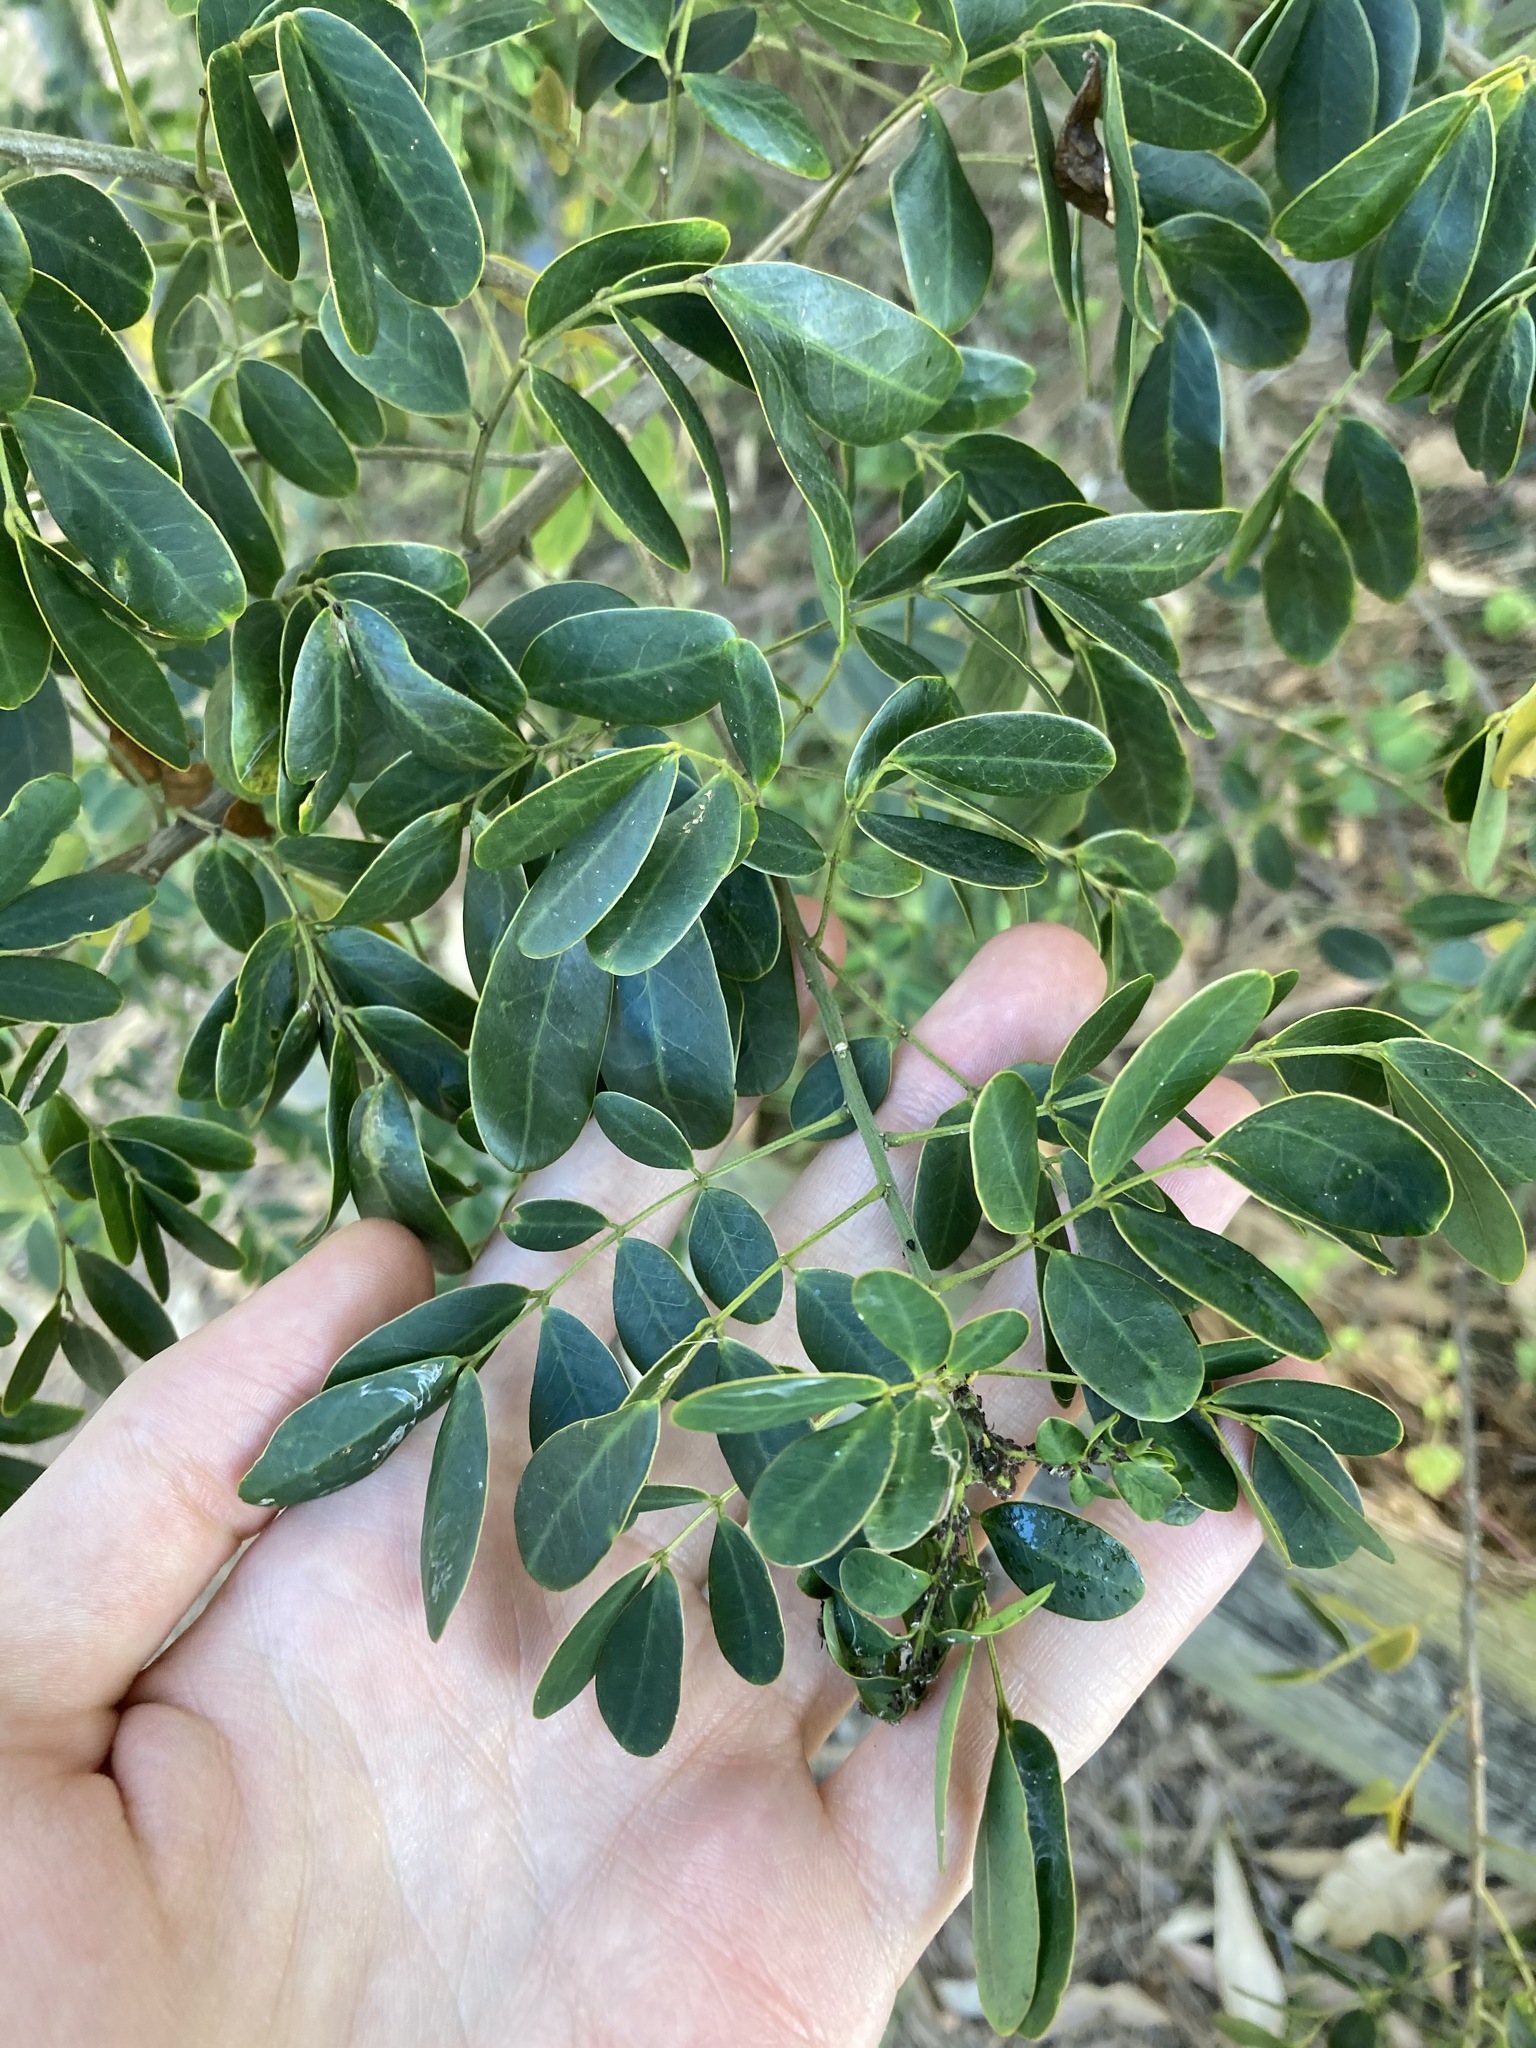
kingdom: Plantae
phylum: Tracheophyta
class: Magnoliopsida
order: Fabales
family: Fabaceae
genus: Senna
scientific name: Senna pendula
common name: Easter cassia
